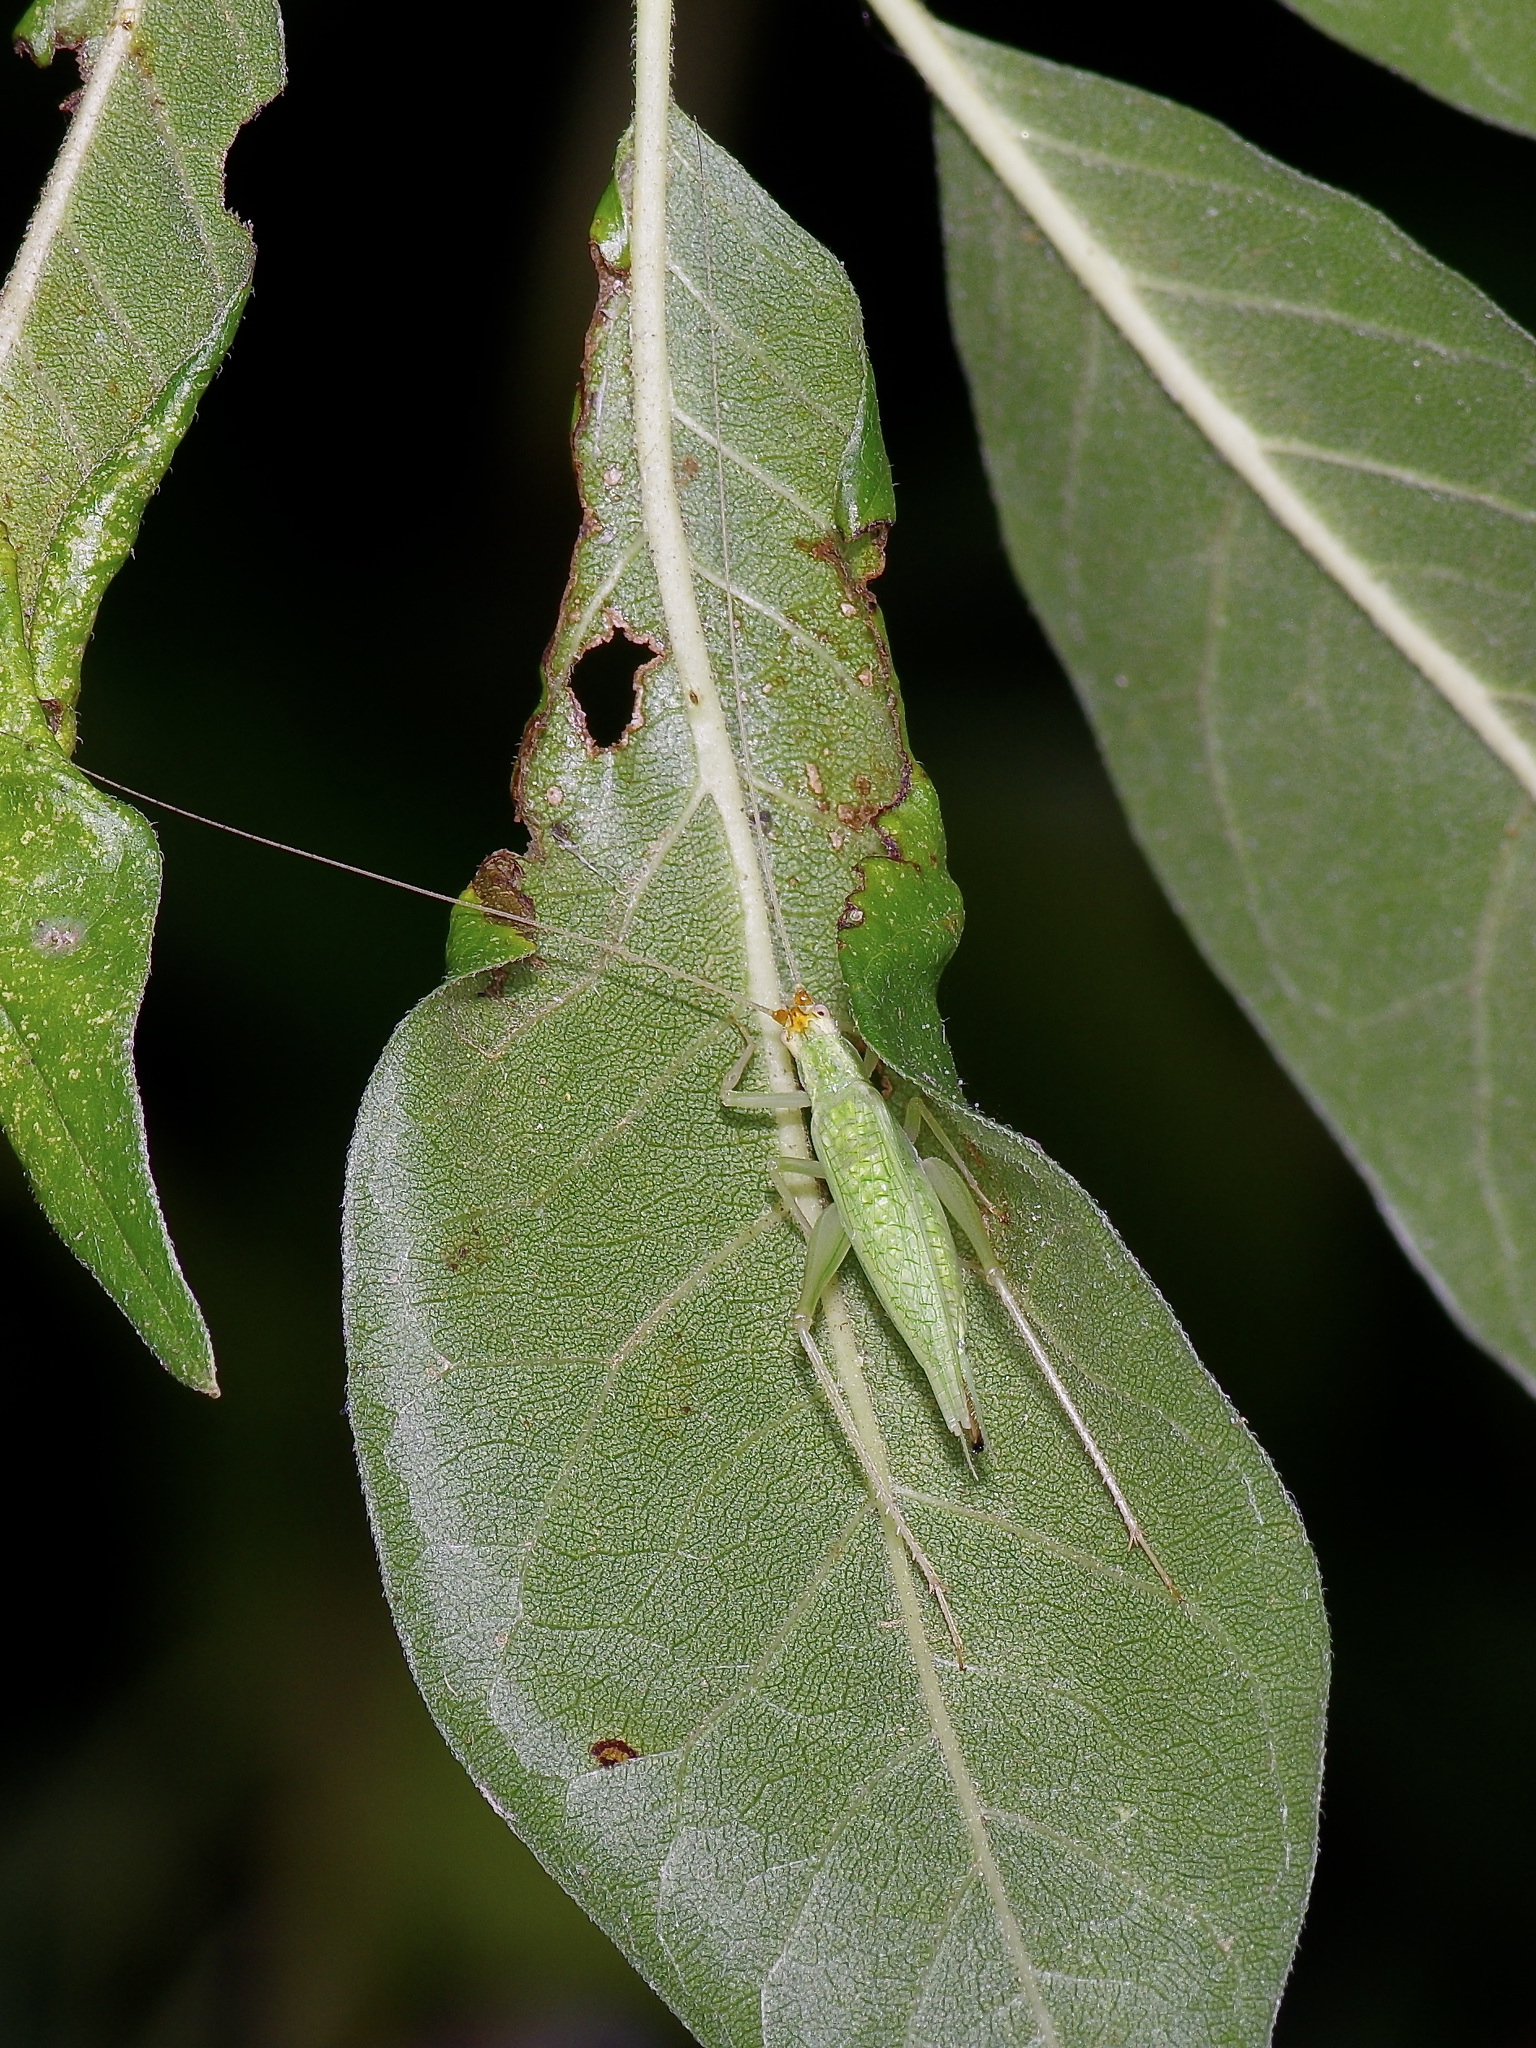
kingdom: Animalia
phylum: Arthropoda
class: Insecta
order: Orthoptera
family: Gryllidae
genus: Oecanthus
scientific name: Oecanthus fultoni
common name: Snowy tree cricket
